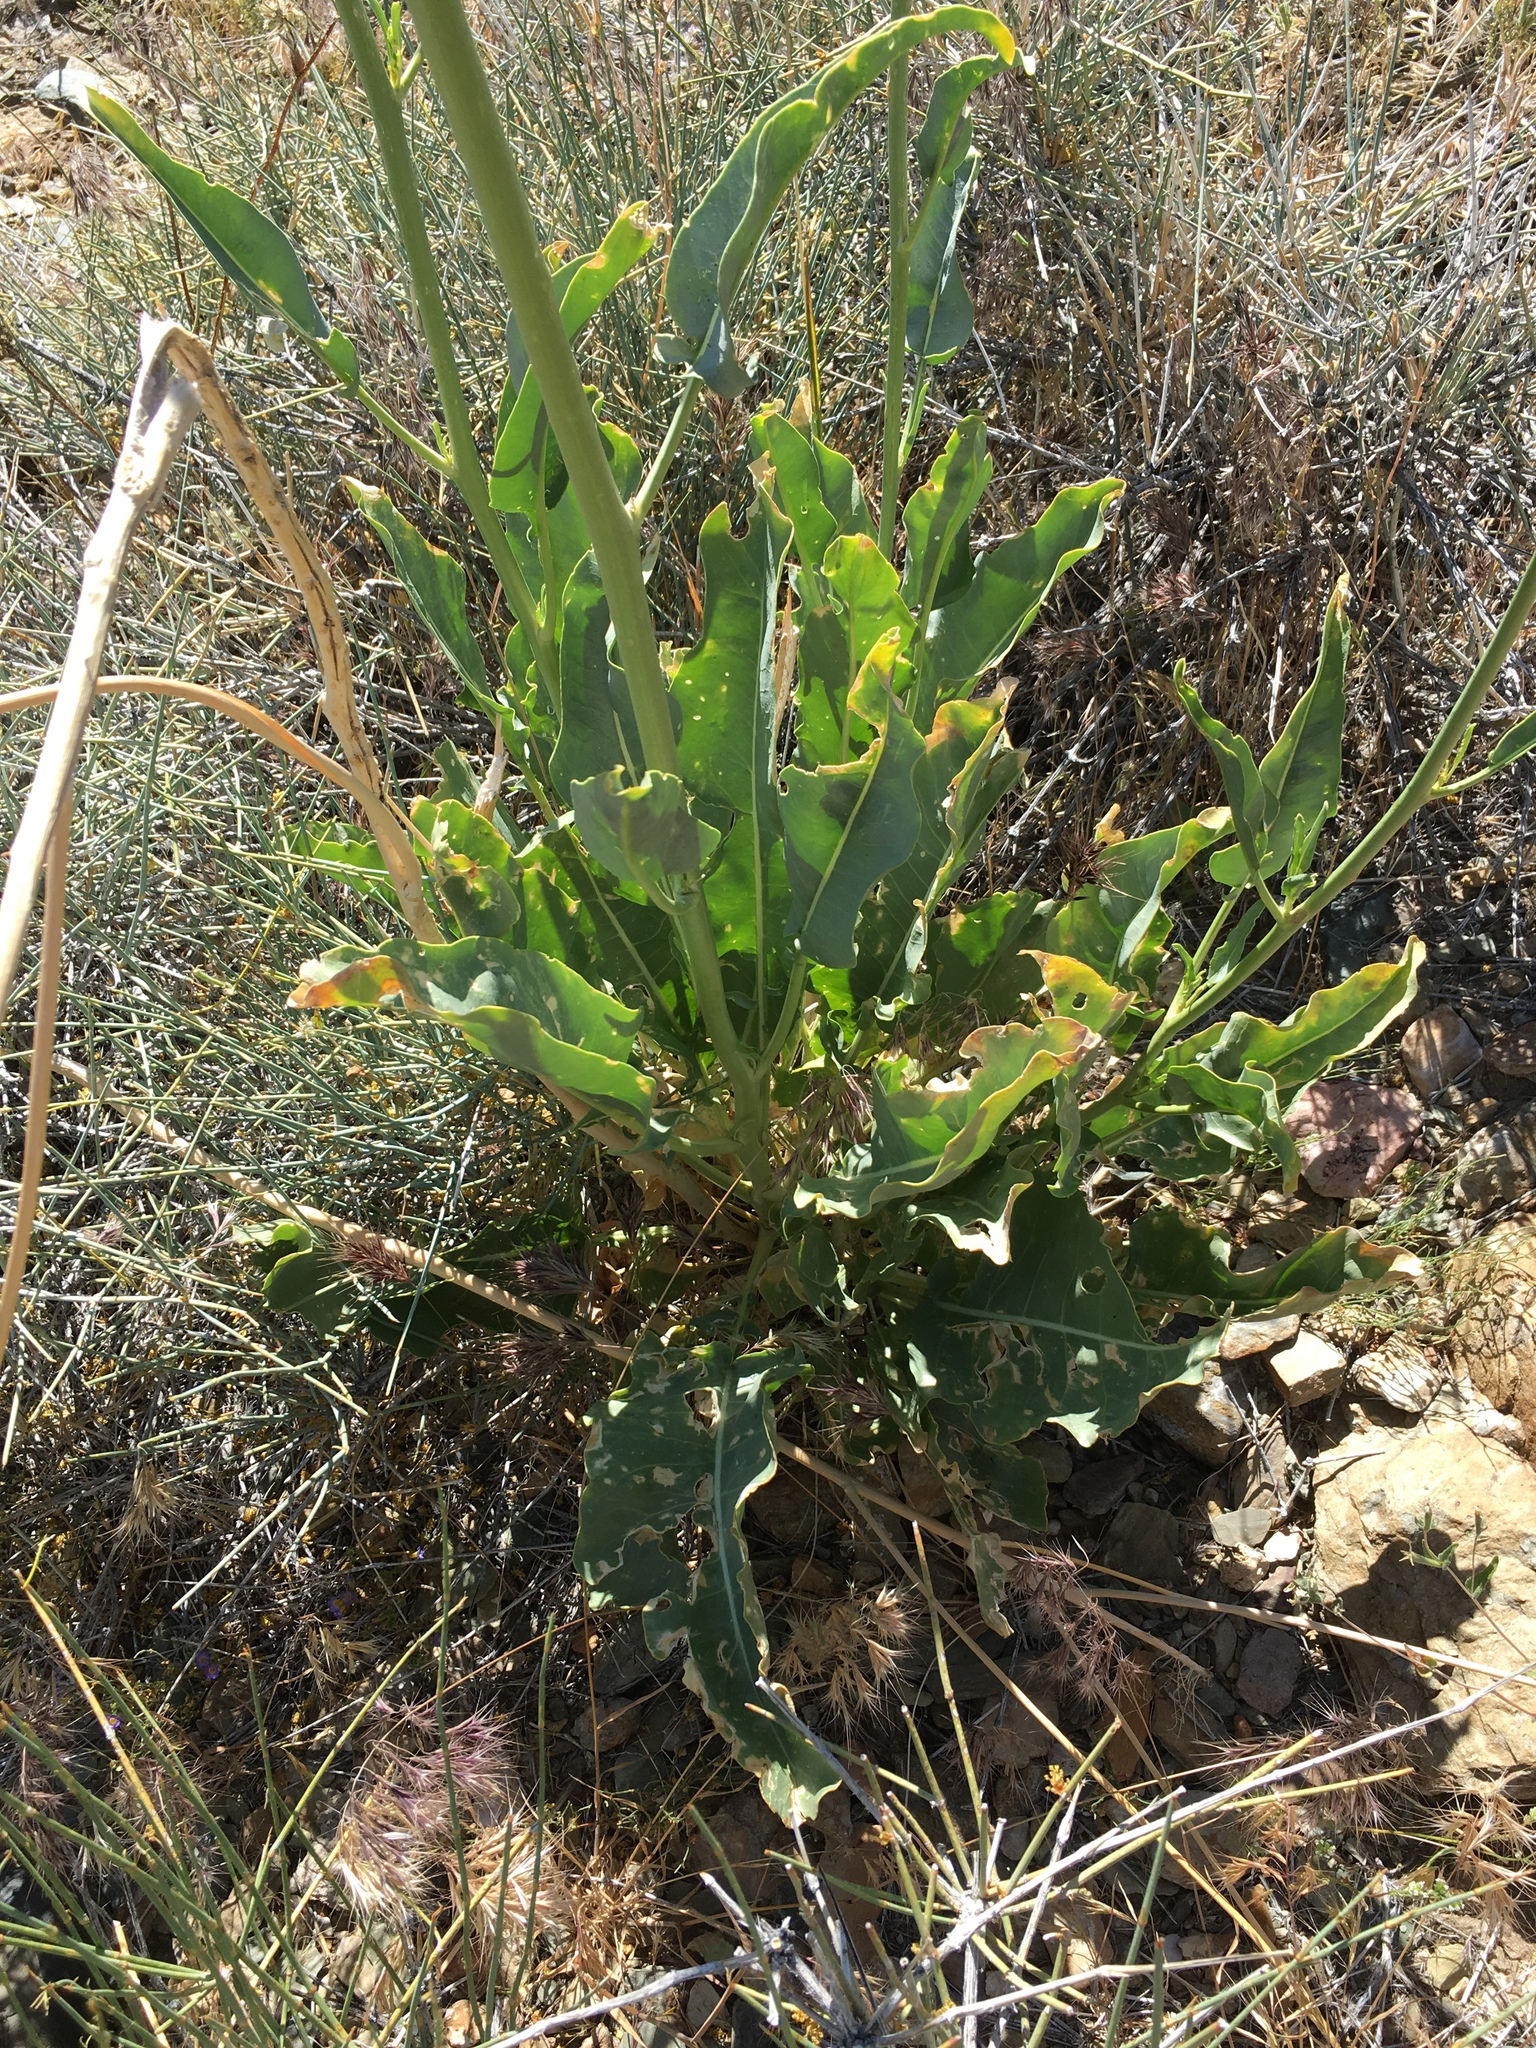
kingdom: Plantae
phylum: Tracheophyta
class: Magnoliopsida
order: Brassicales
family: Brassicaceae
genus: Stanleya
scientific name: Stanleya elata
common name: Panamint prince's plume
